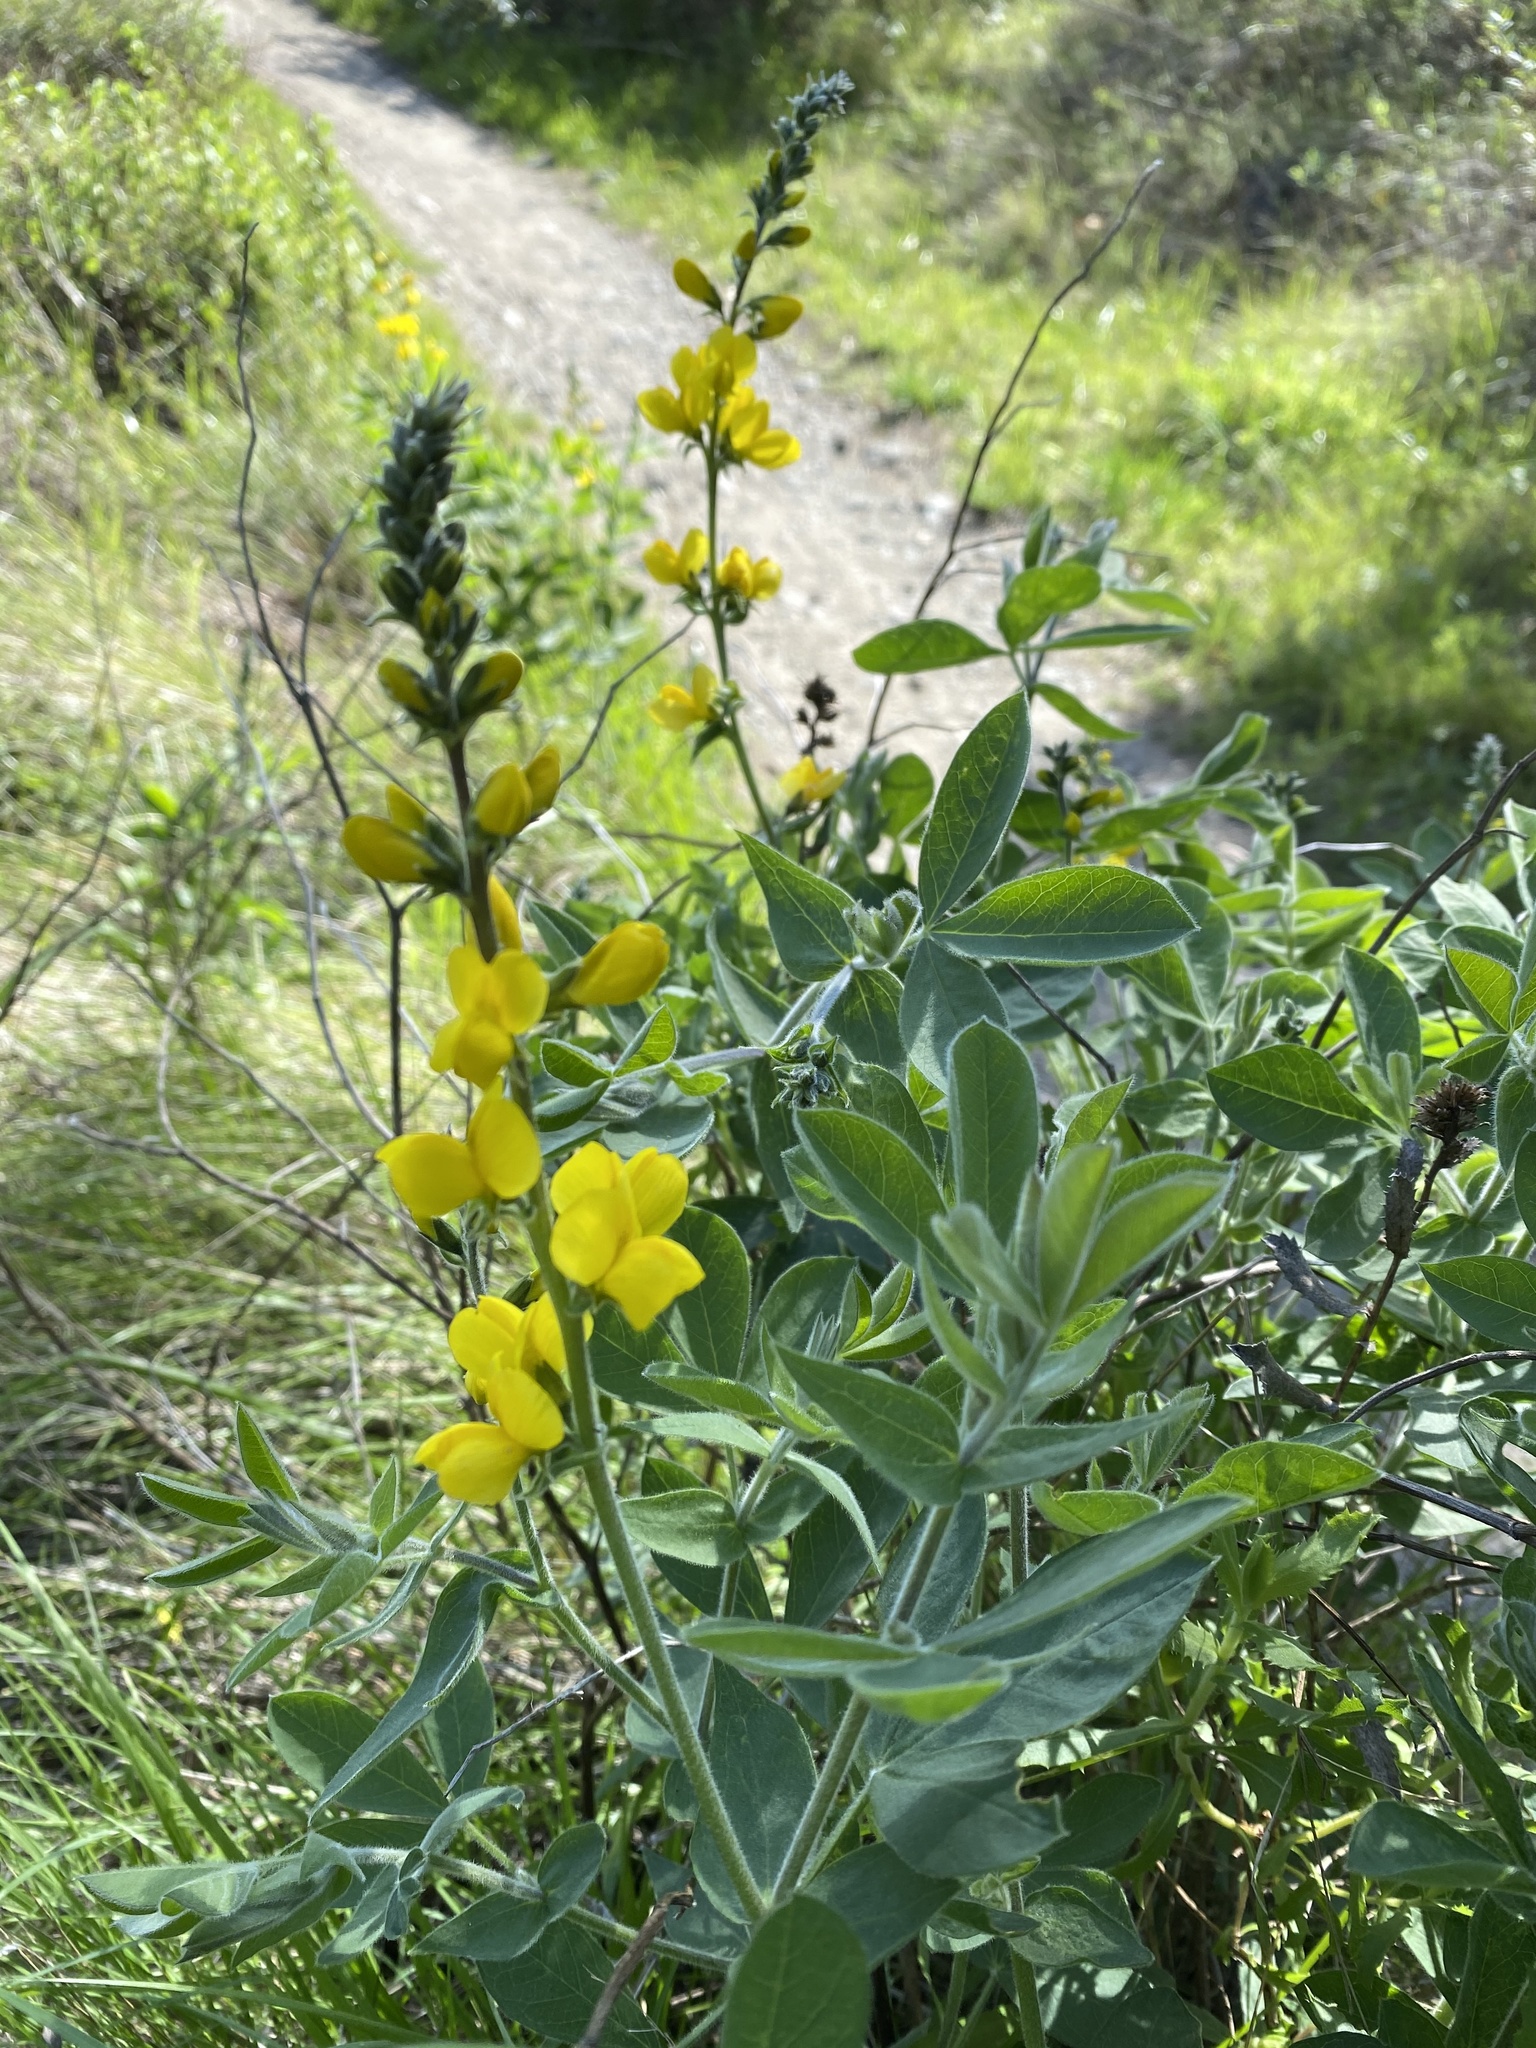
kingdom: Plantae
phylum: Tracheophyta
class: Magnoliopsida
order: Fabales
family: Fabaceae
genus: Thermopsis
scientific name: Thermopsis californica
